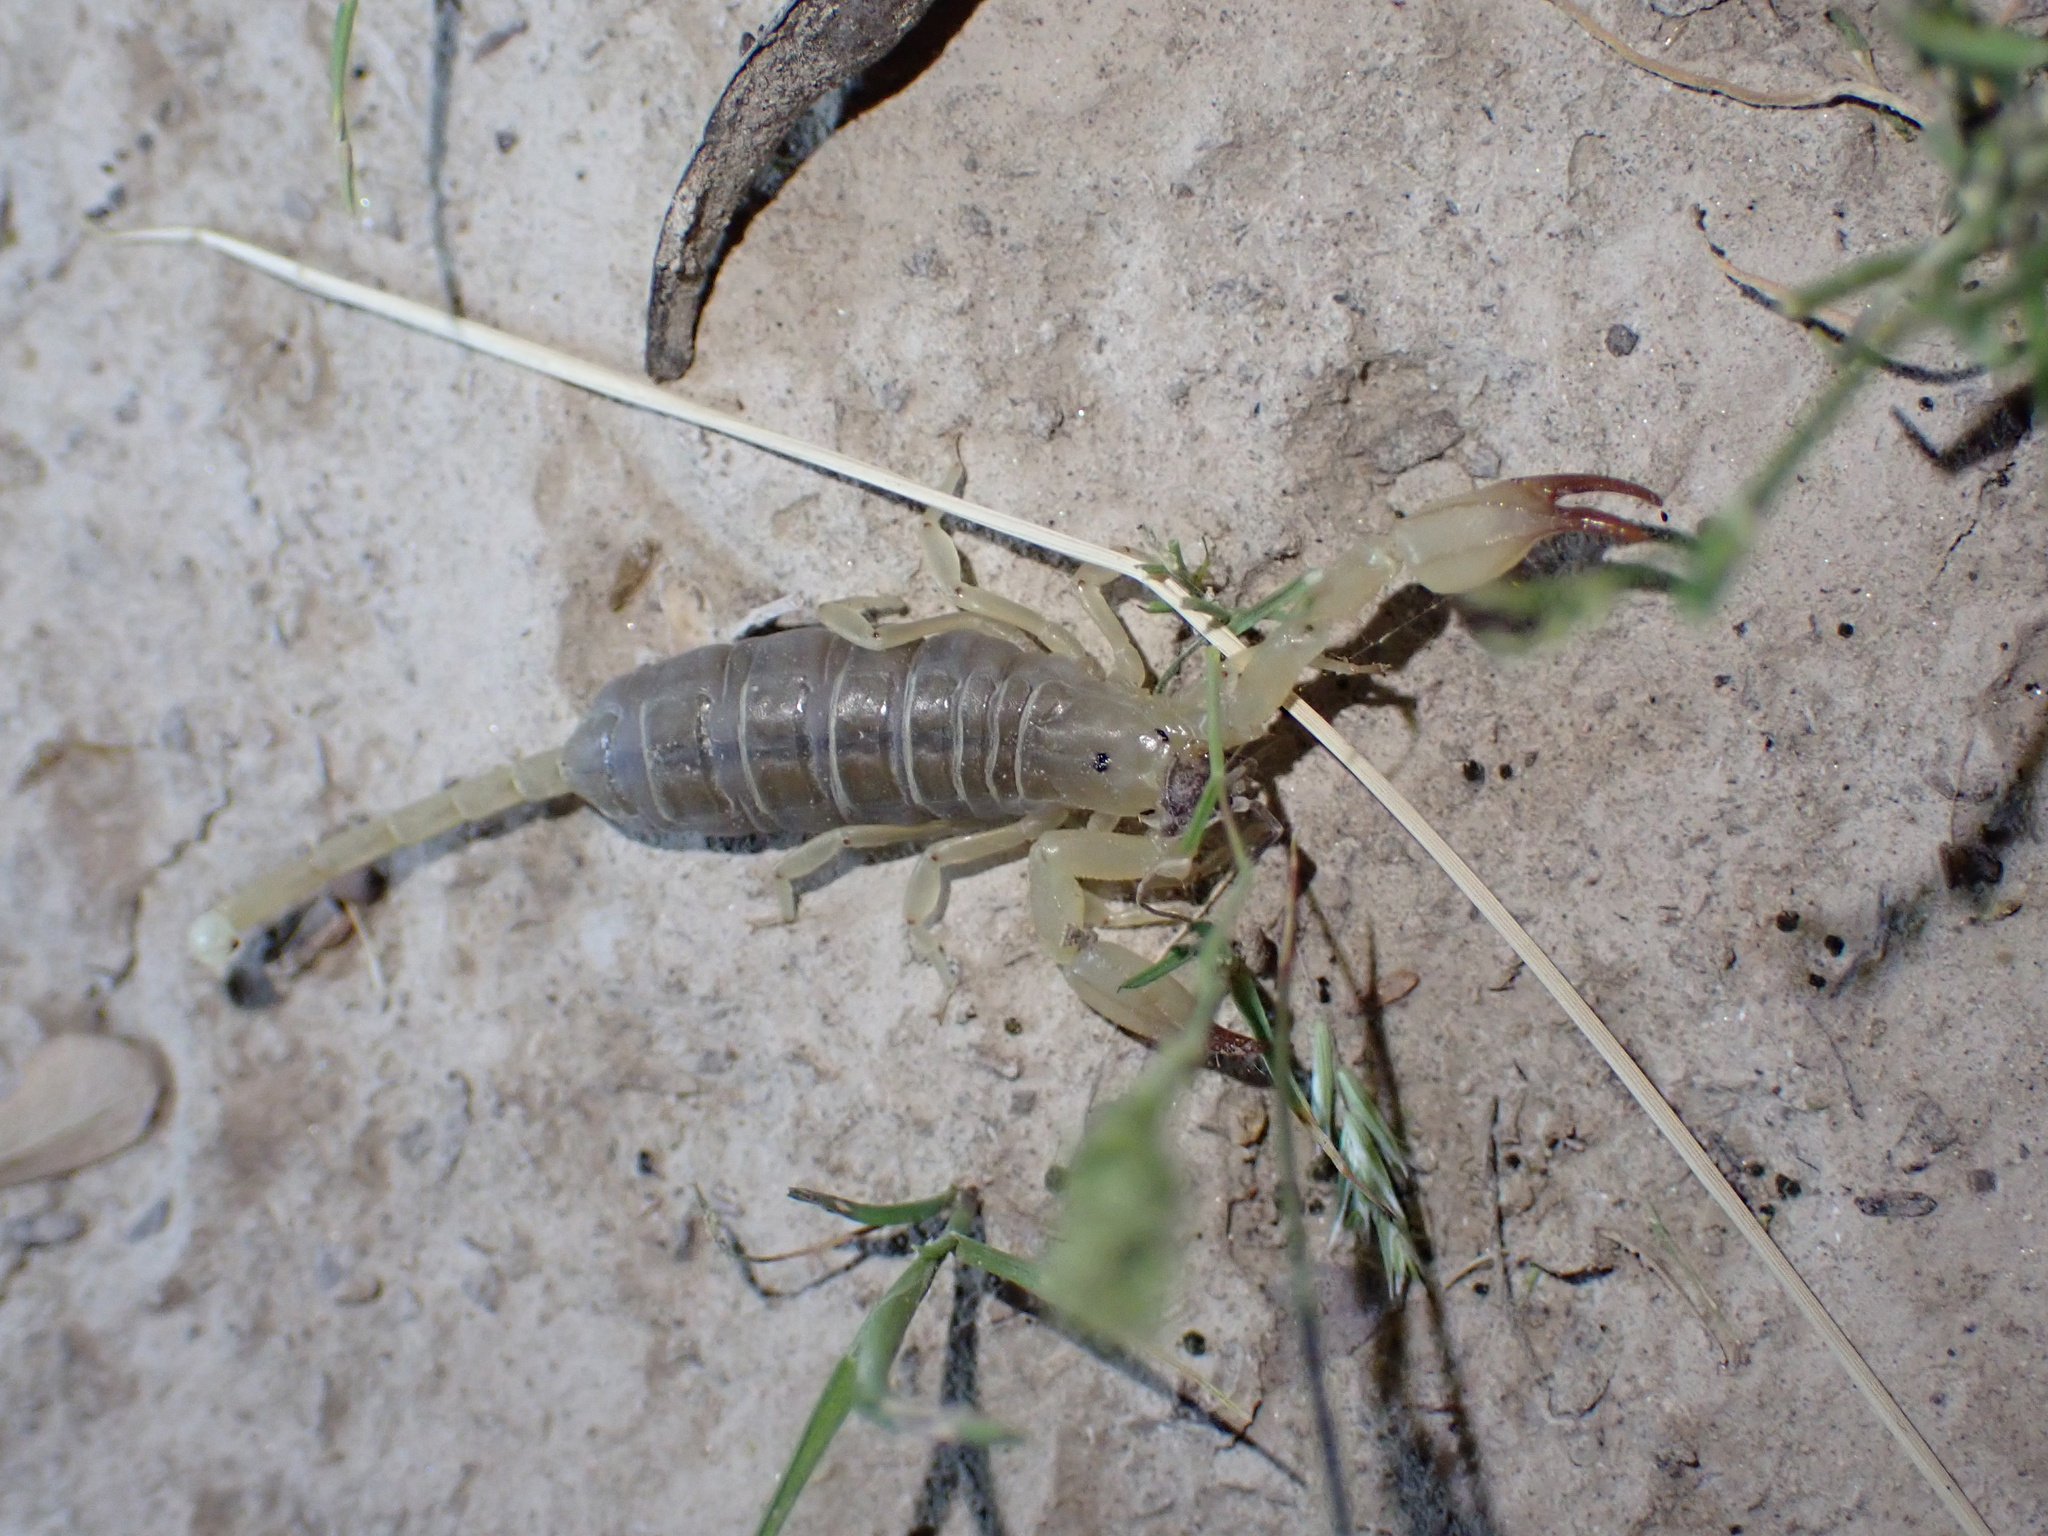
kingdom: Animalia
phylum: Arthropoda
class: Arachnida
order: Scorpiones
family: Hemiscorpiidae
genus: Hemiscorpius
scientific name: Hemiscorpius acanthocercus
